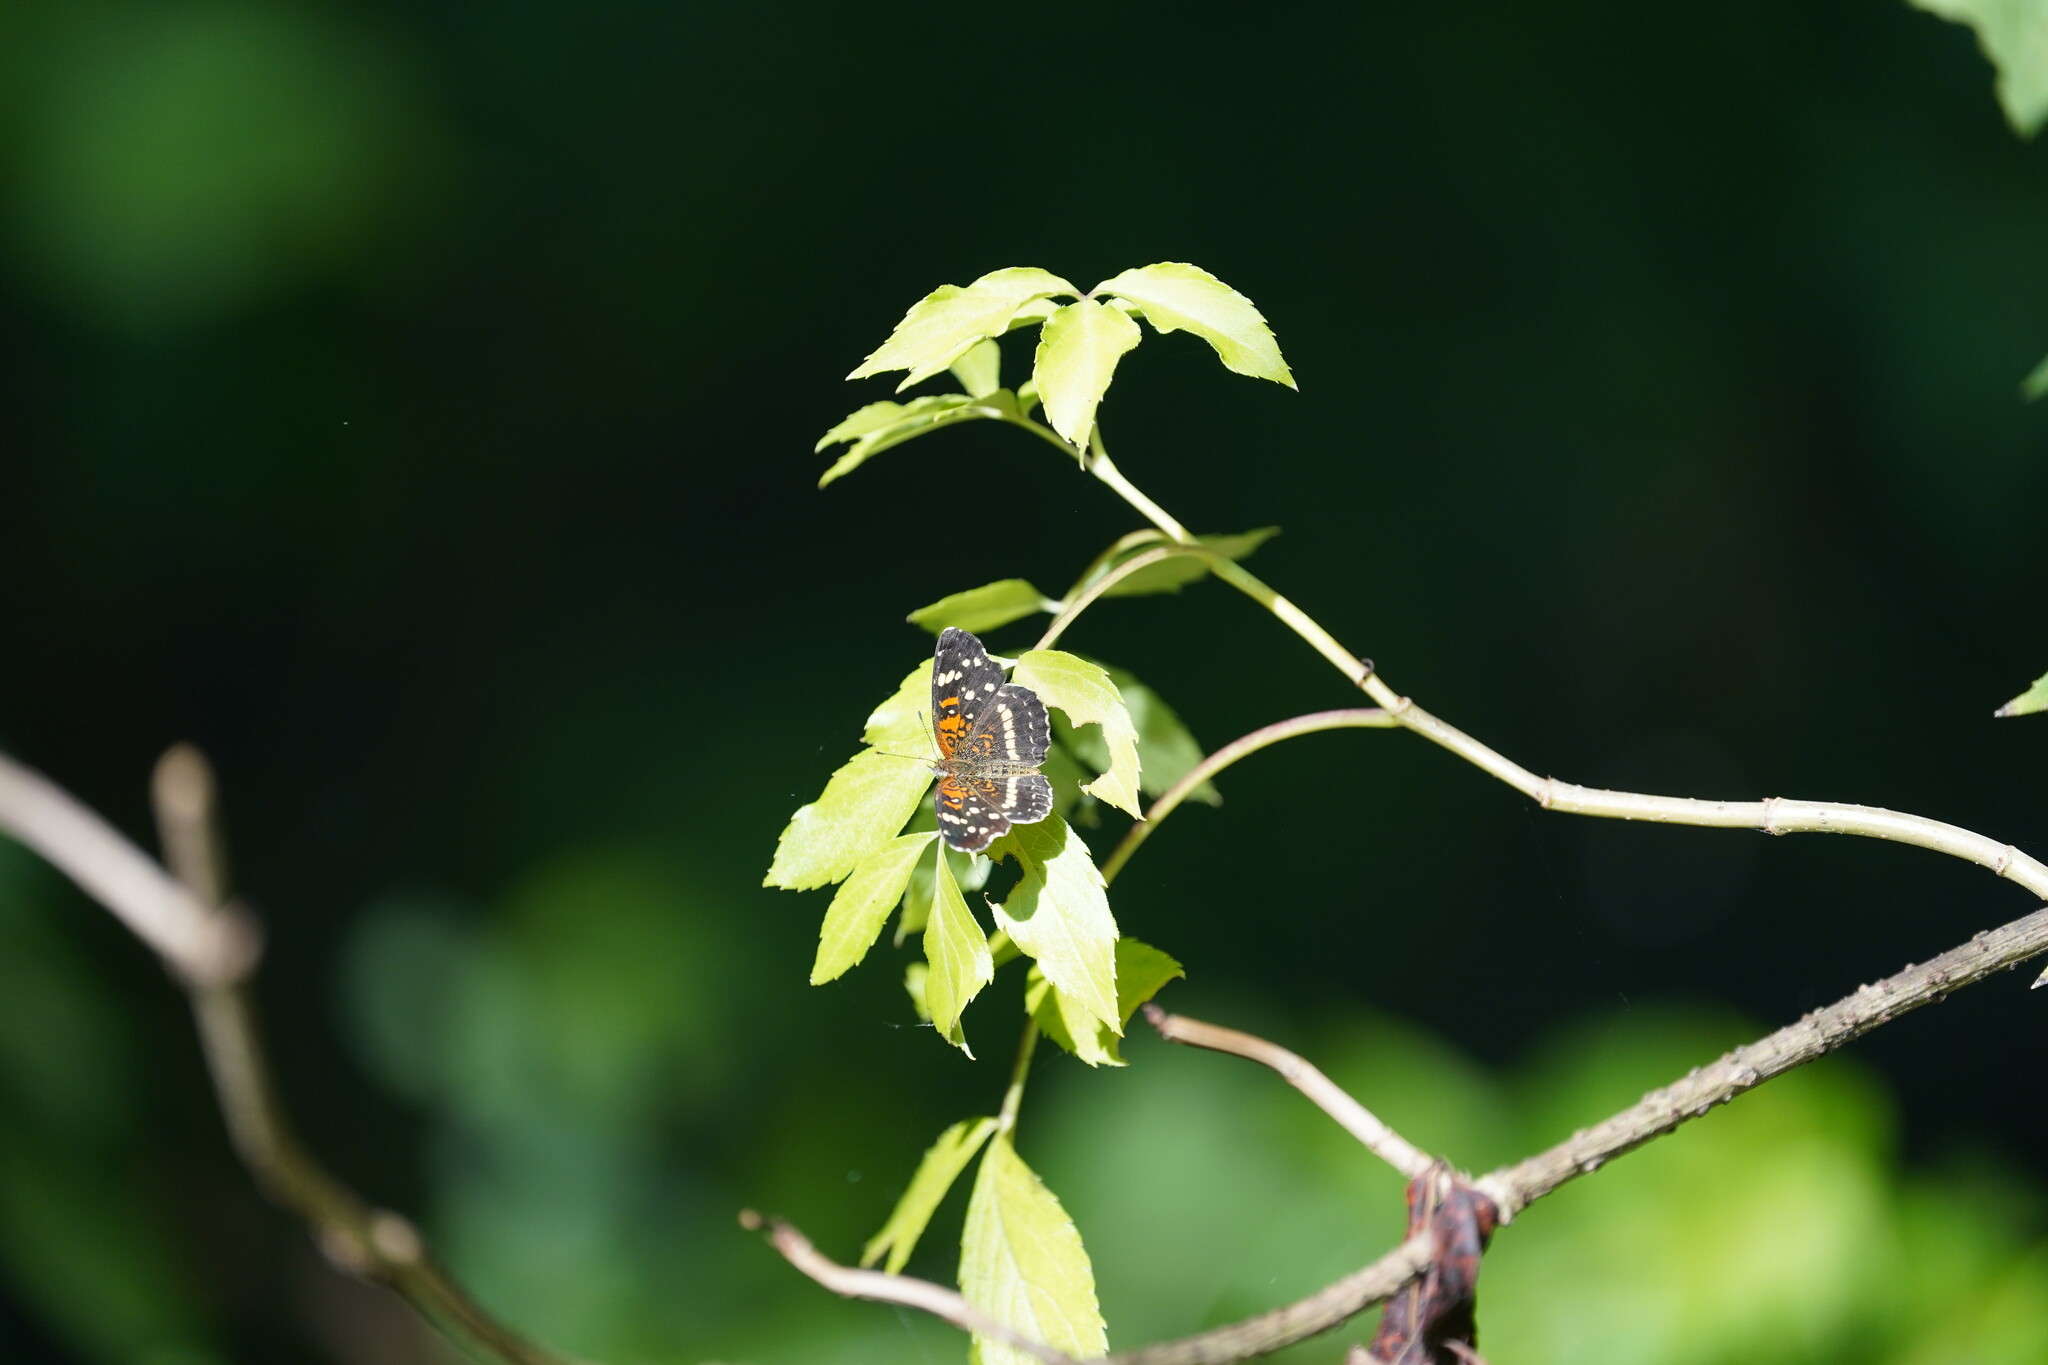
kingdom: Animalia
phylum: Arthropoda
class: Insecta
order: Lepidoptera
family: Nymphalidae
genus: Anthanassa
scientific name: Anthanassa taxana
